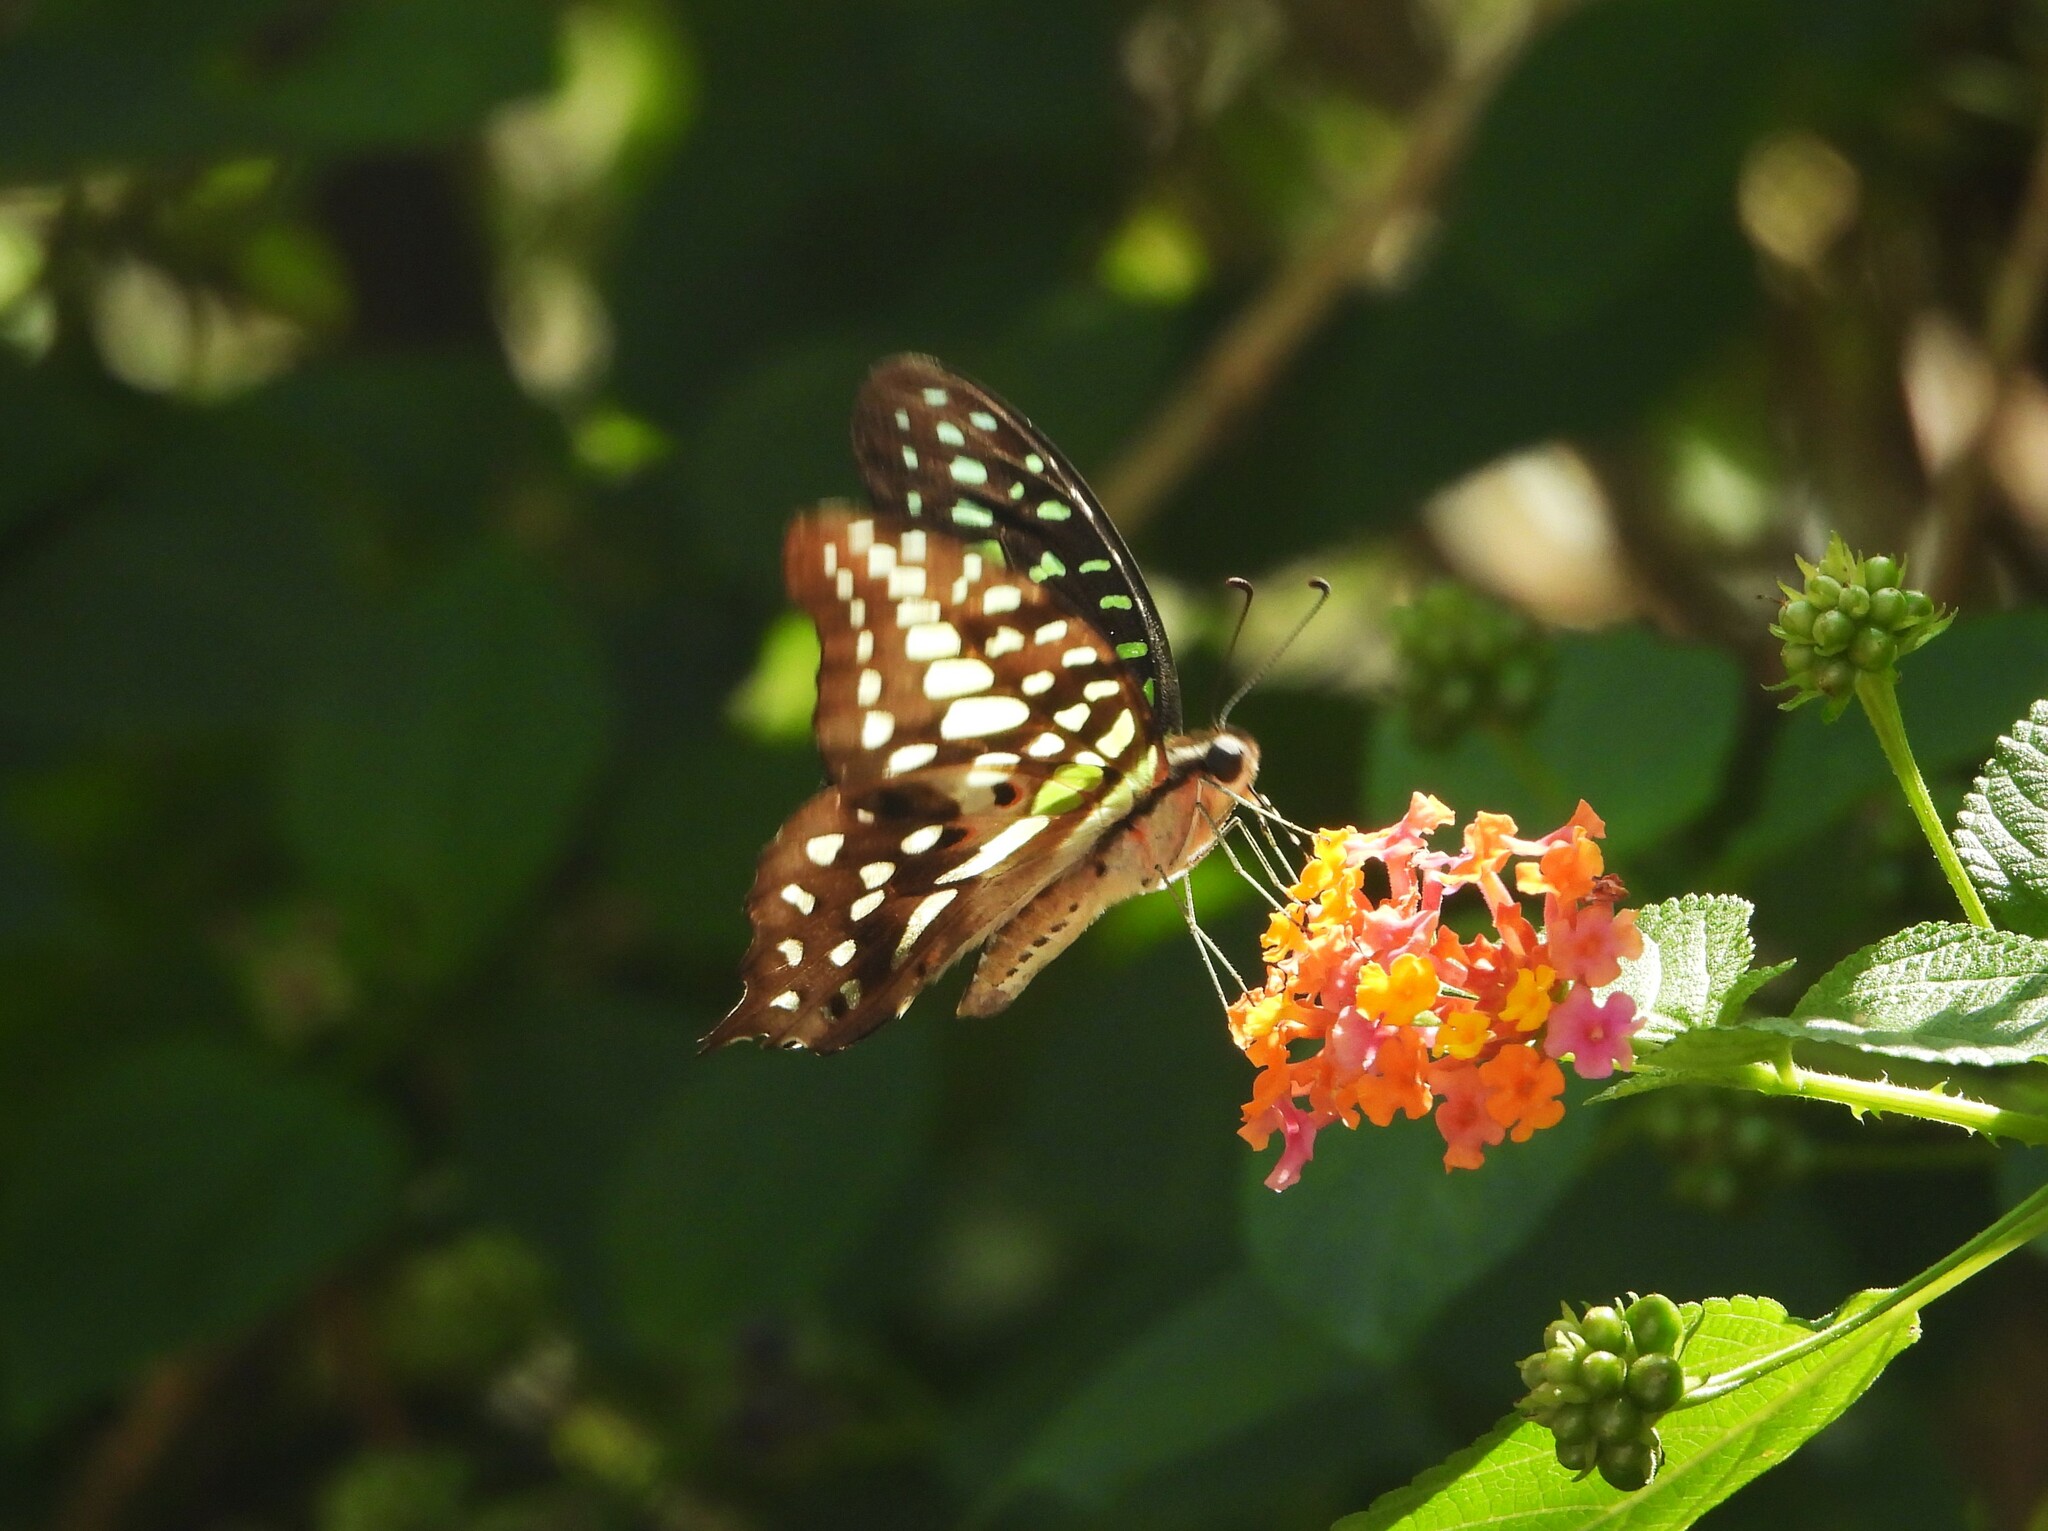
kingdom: Animalia
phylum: Arthropoda
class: Insecta
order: Lepidoptera
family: Papilionidae
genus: Graphium
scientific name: Graphium agamemnon
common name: Tailed jay
